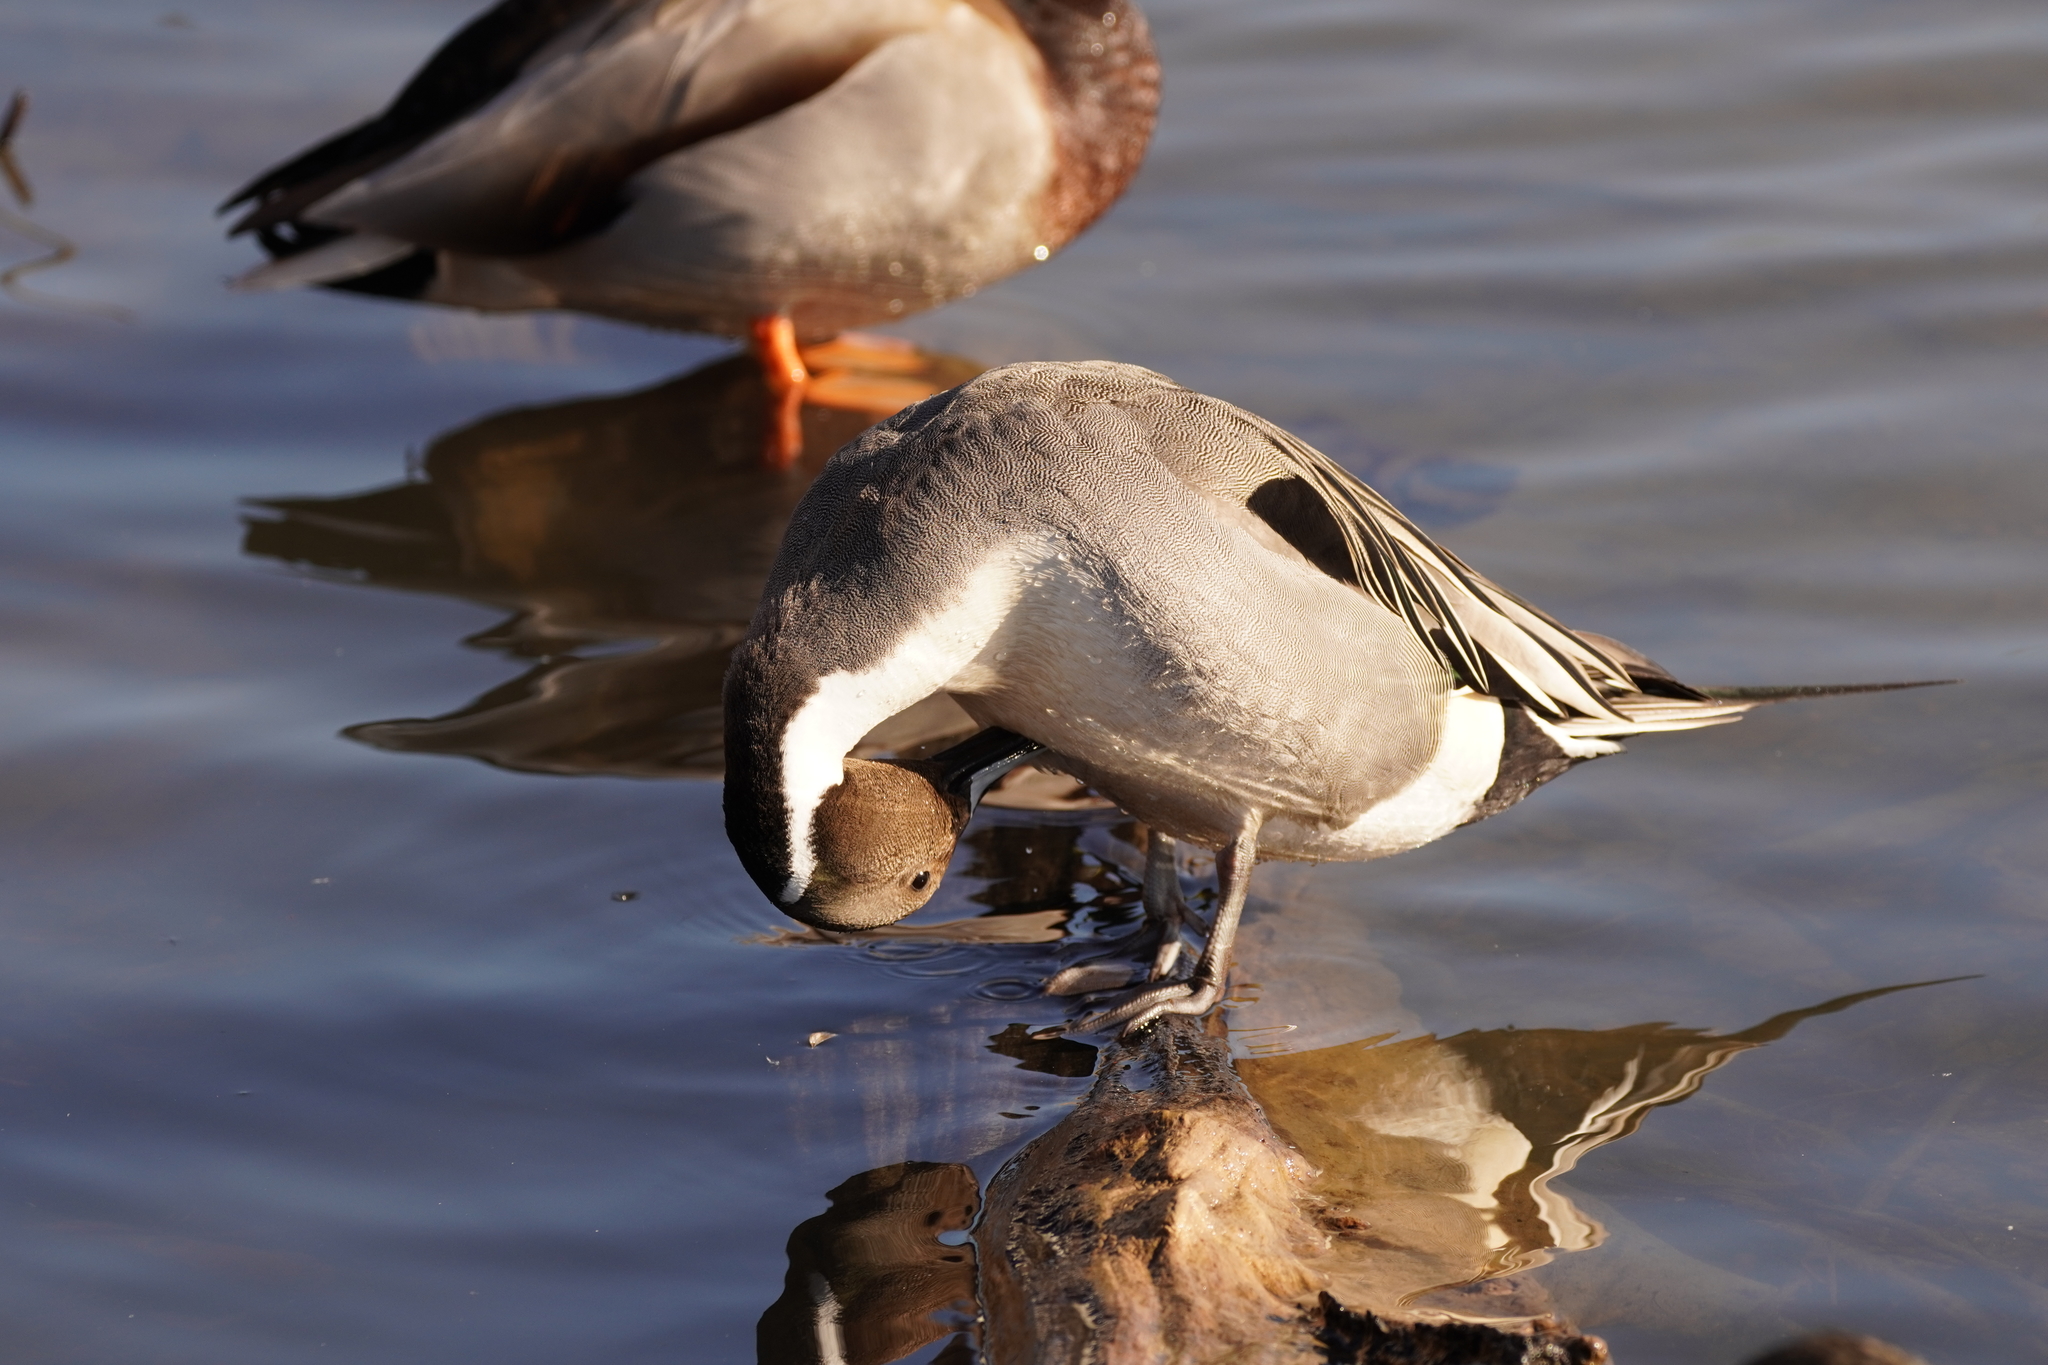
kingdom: Animalia
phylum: Chordata
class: Aves
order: Anseriformes
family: Anatidae
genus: Anas
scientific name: Anas acuta
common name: Northern pintail
